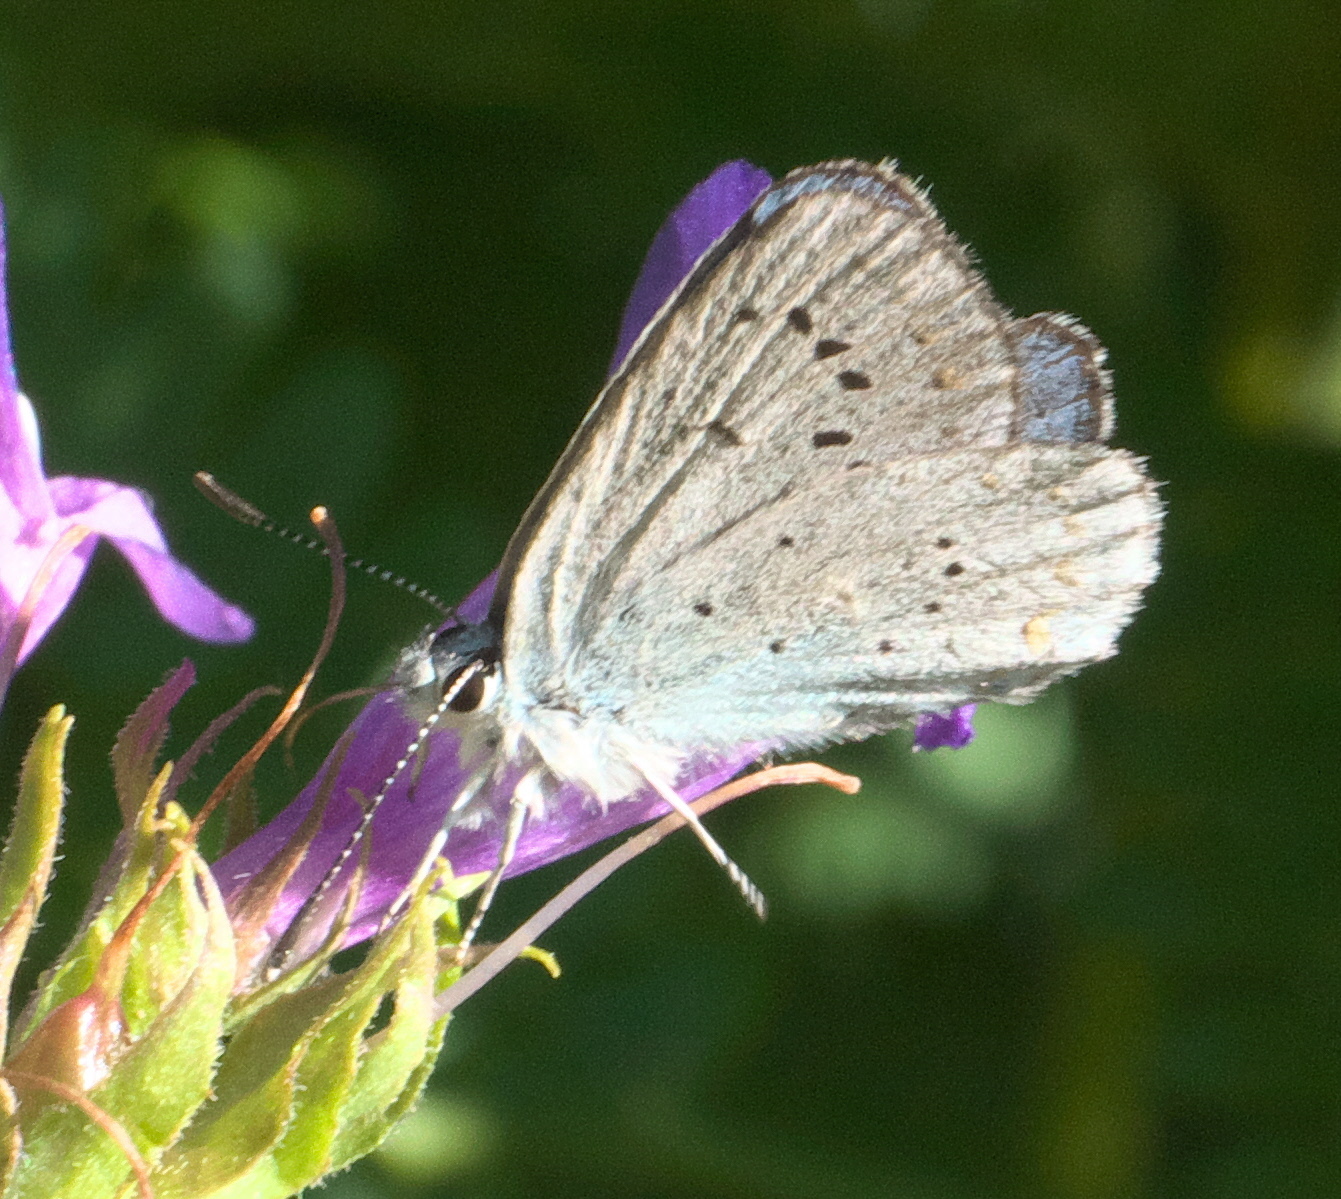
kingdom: Animalia
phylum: Arthropoda
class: Insecta
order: Lepidoptera
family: Lycaenidae
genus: Lycaeides
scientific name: Lycaeides anna
